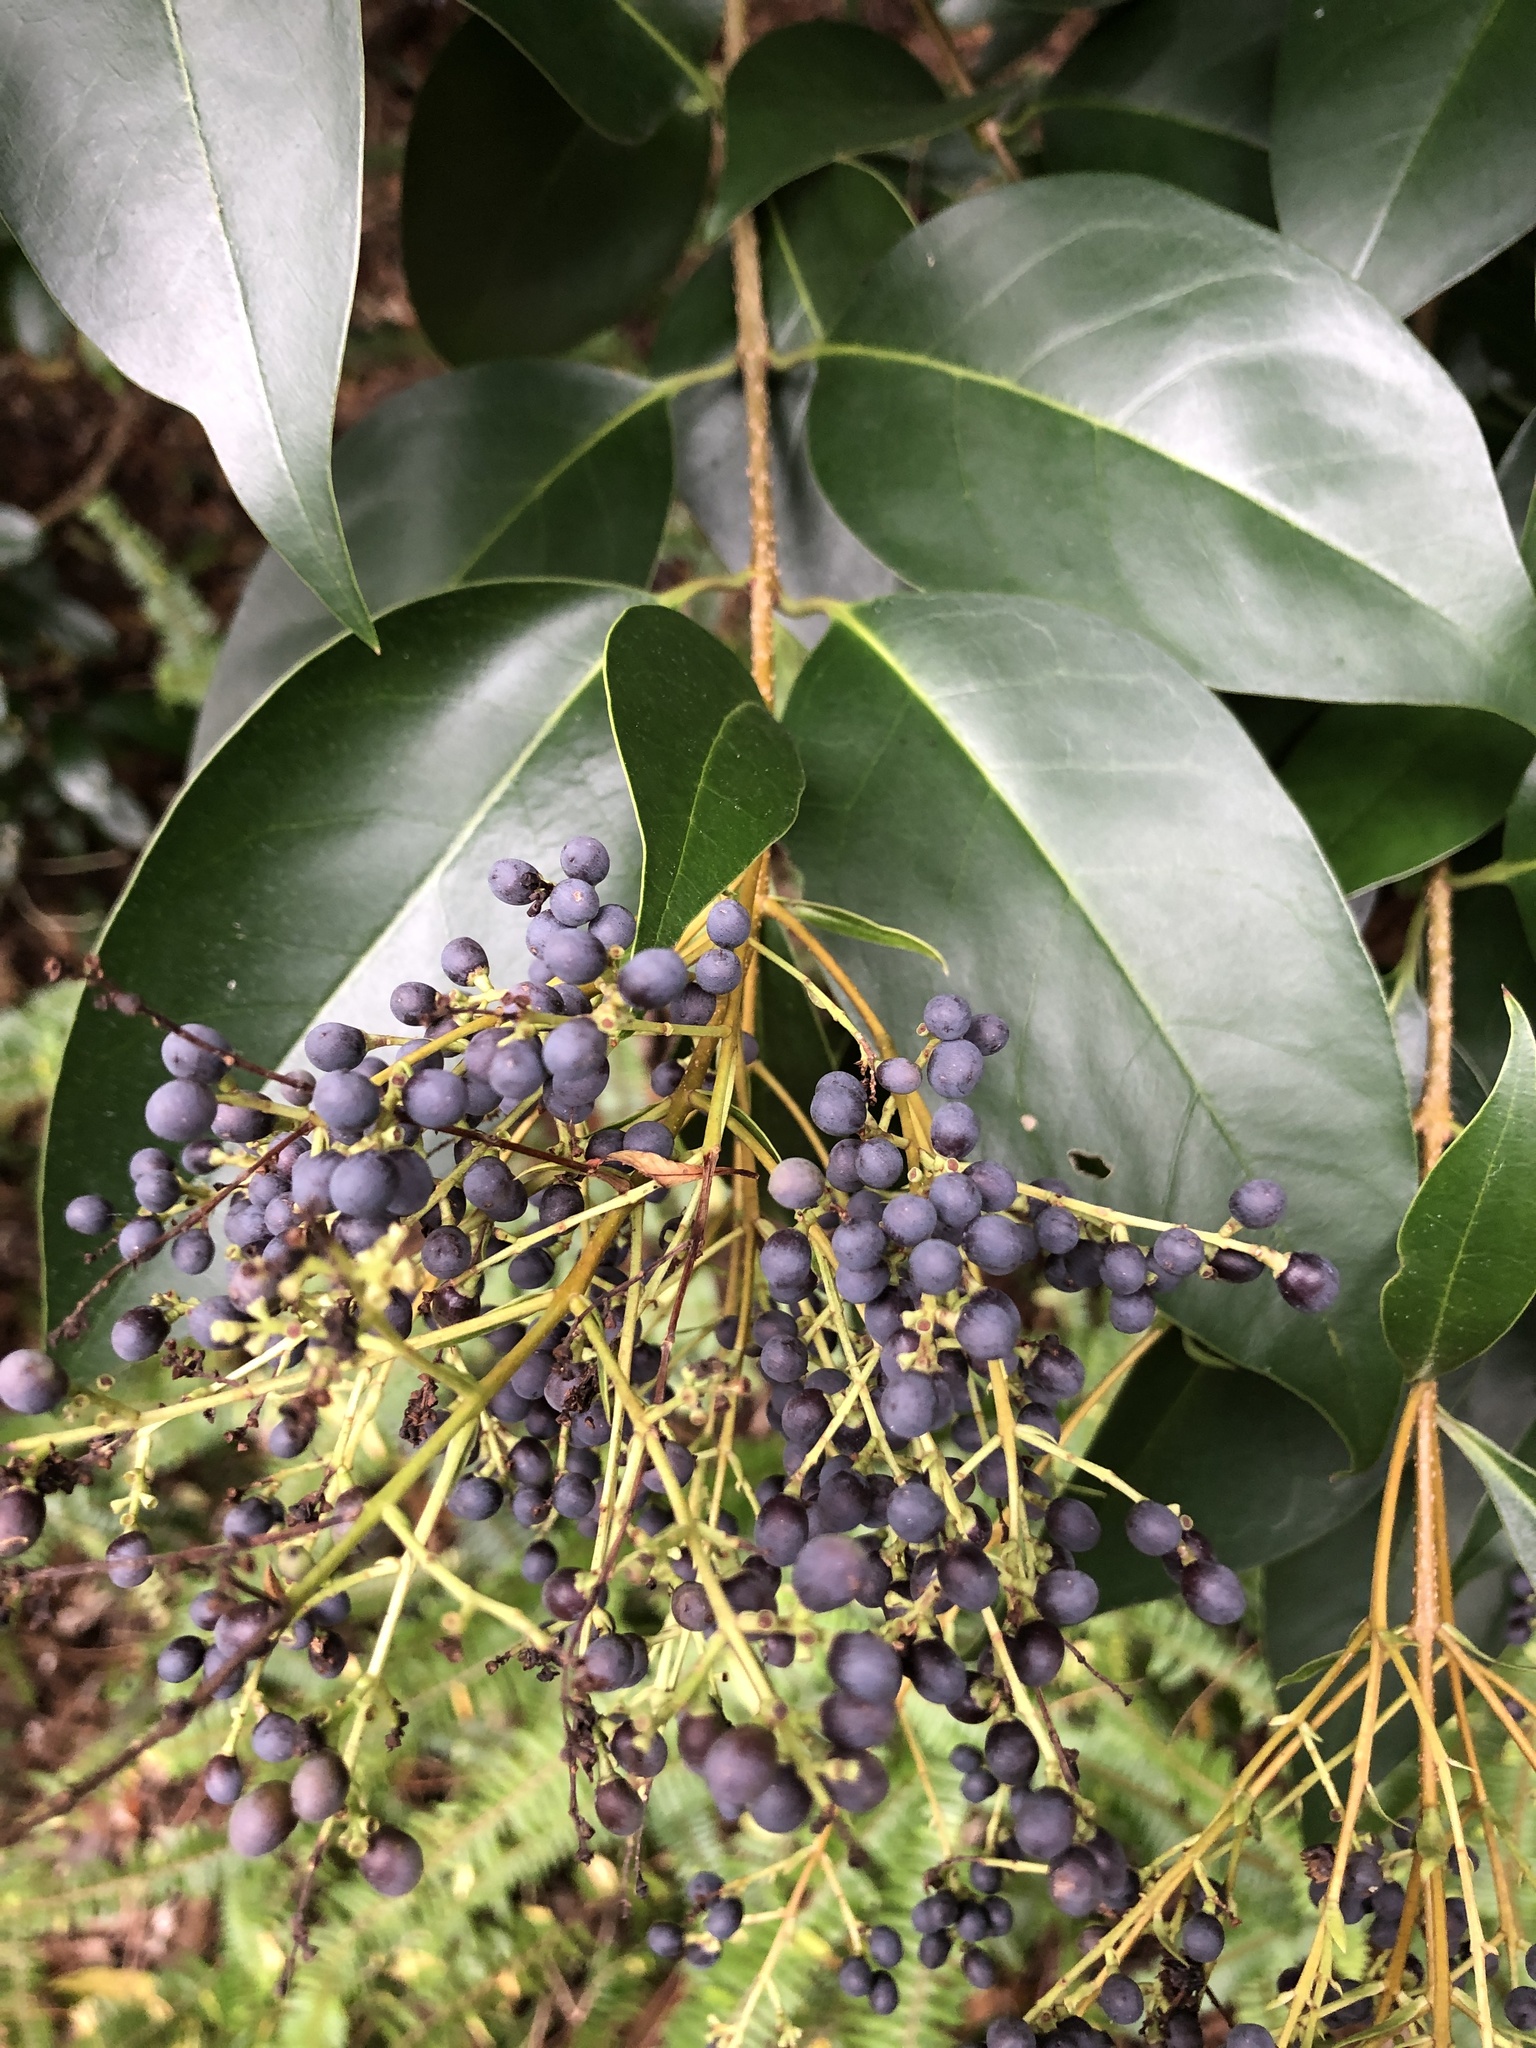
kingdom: Plantae
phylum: Tracheophyta
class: Magnoliopsida
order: Lamiales
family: Oleaceae
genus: Ligustrum
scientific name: Ligustrum lucidum
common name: Glossy privet
